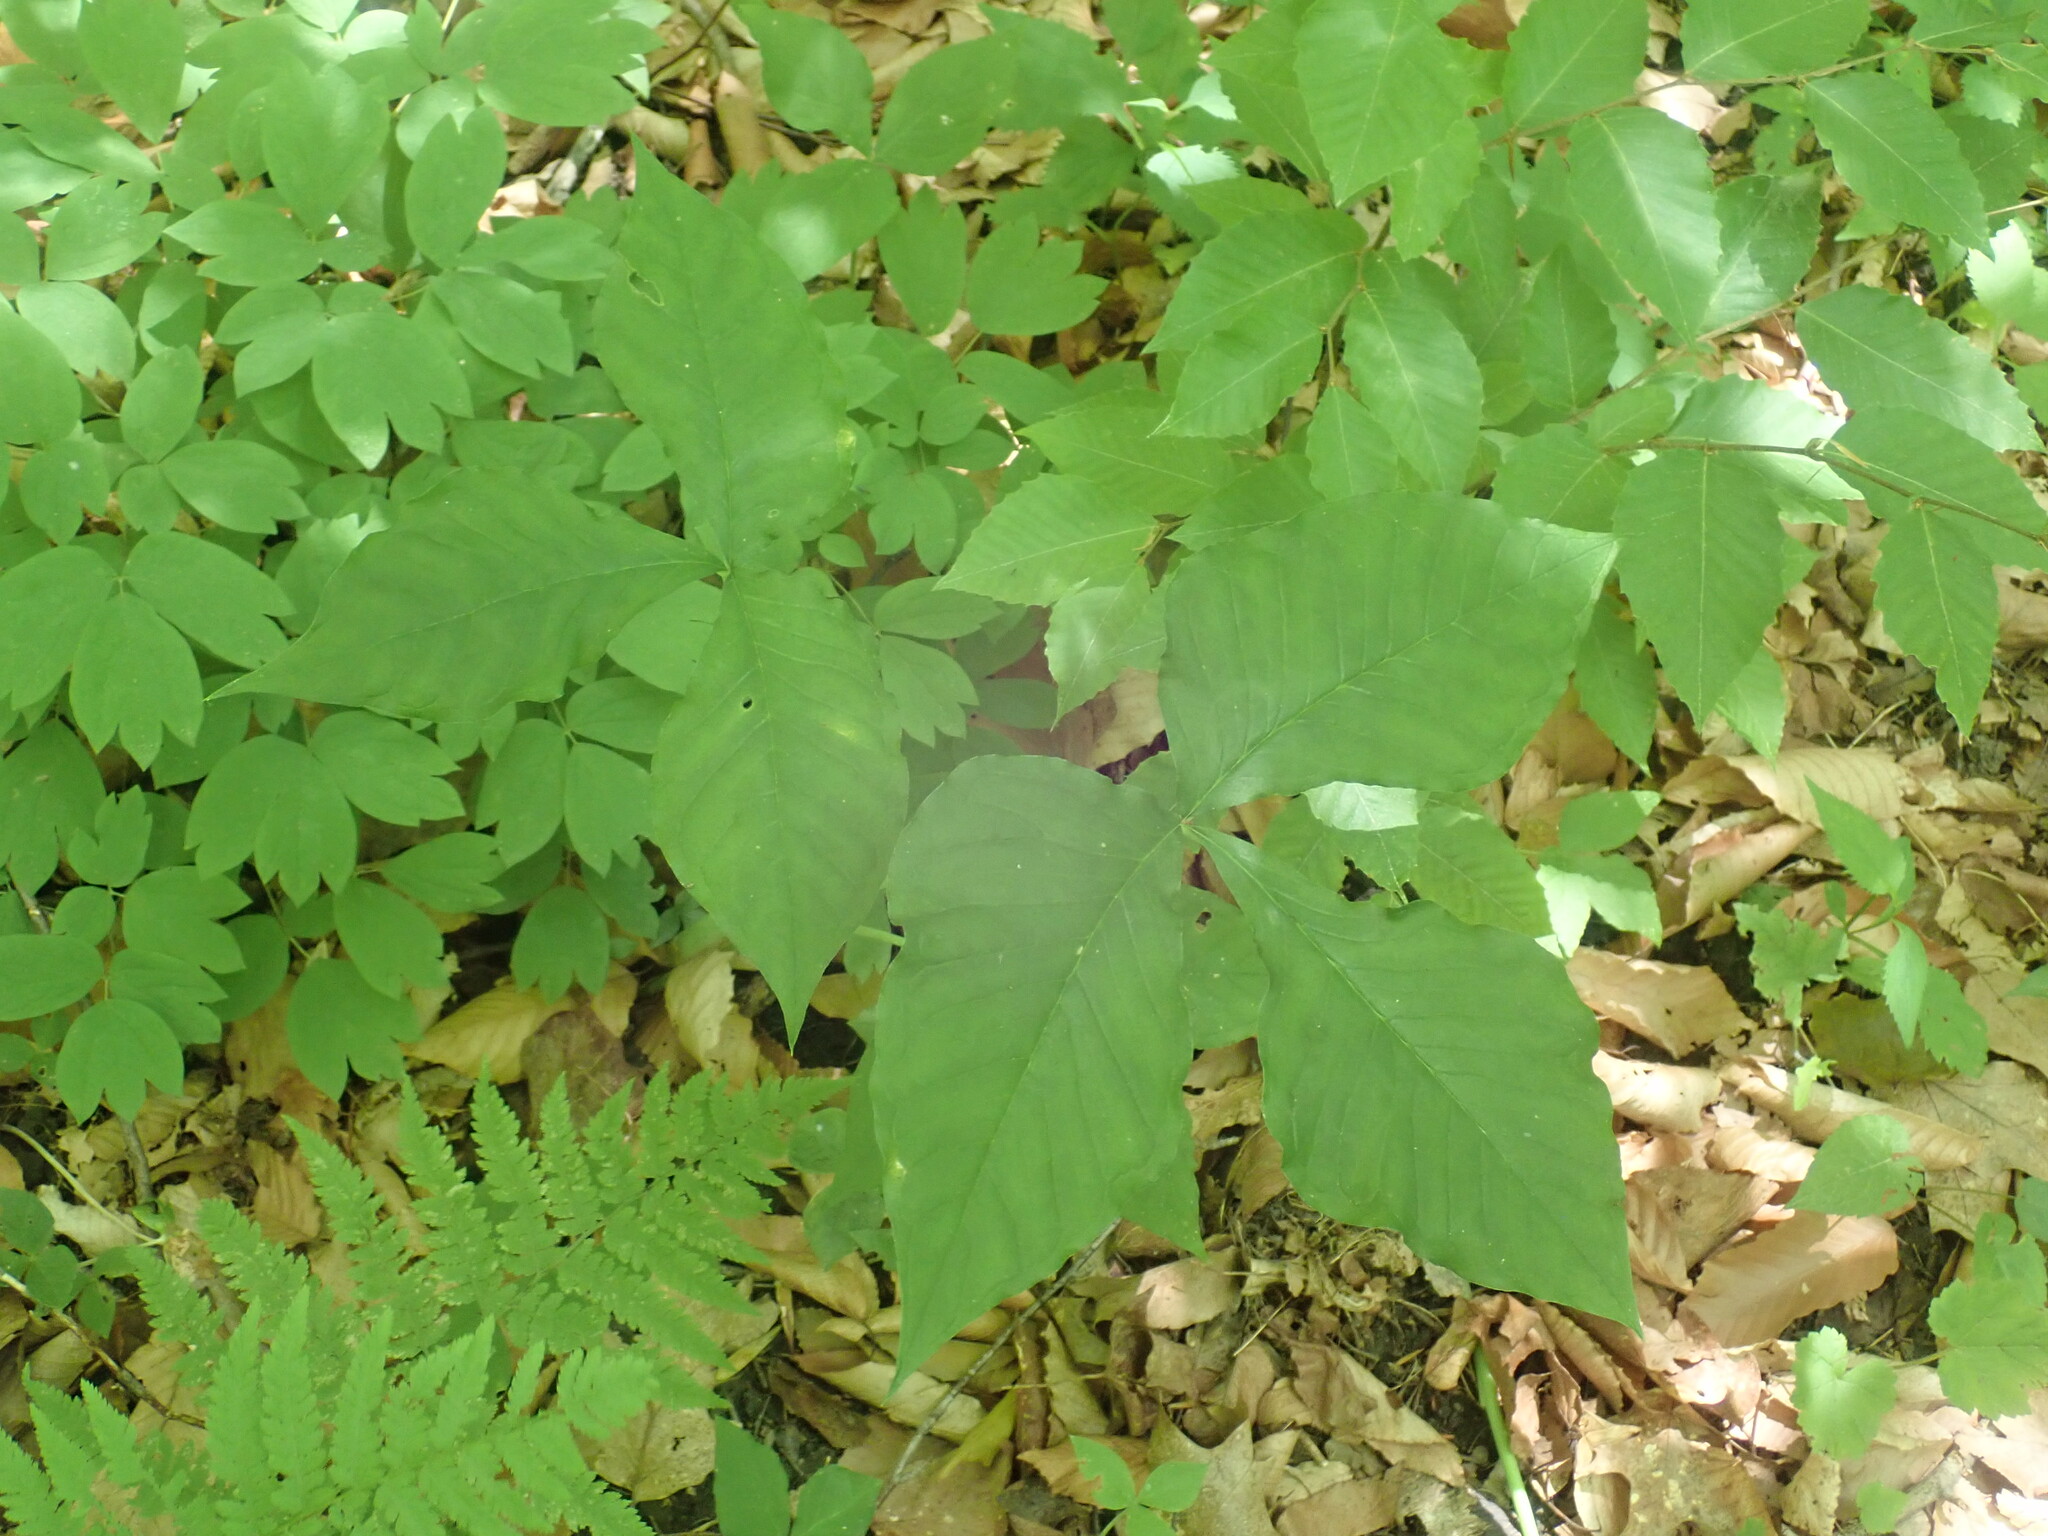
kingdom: Plantae
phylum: Tracheophyta
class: Liliopsida
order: Alismatales
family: Araceae
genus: Arisaema
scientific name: Arisaema triphyllum
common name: Jack-in-the-pulpit
